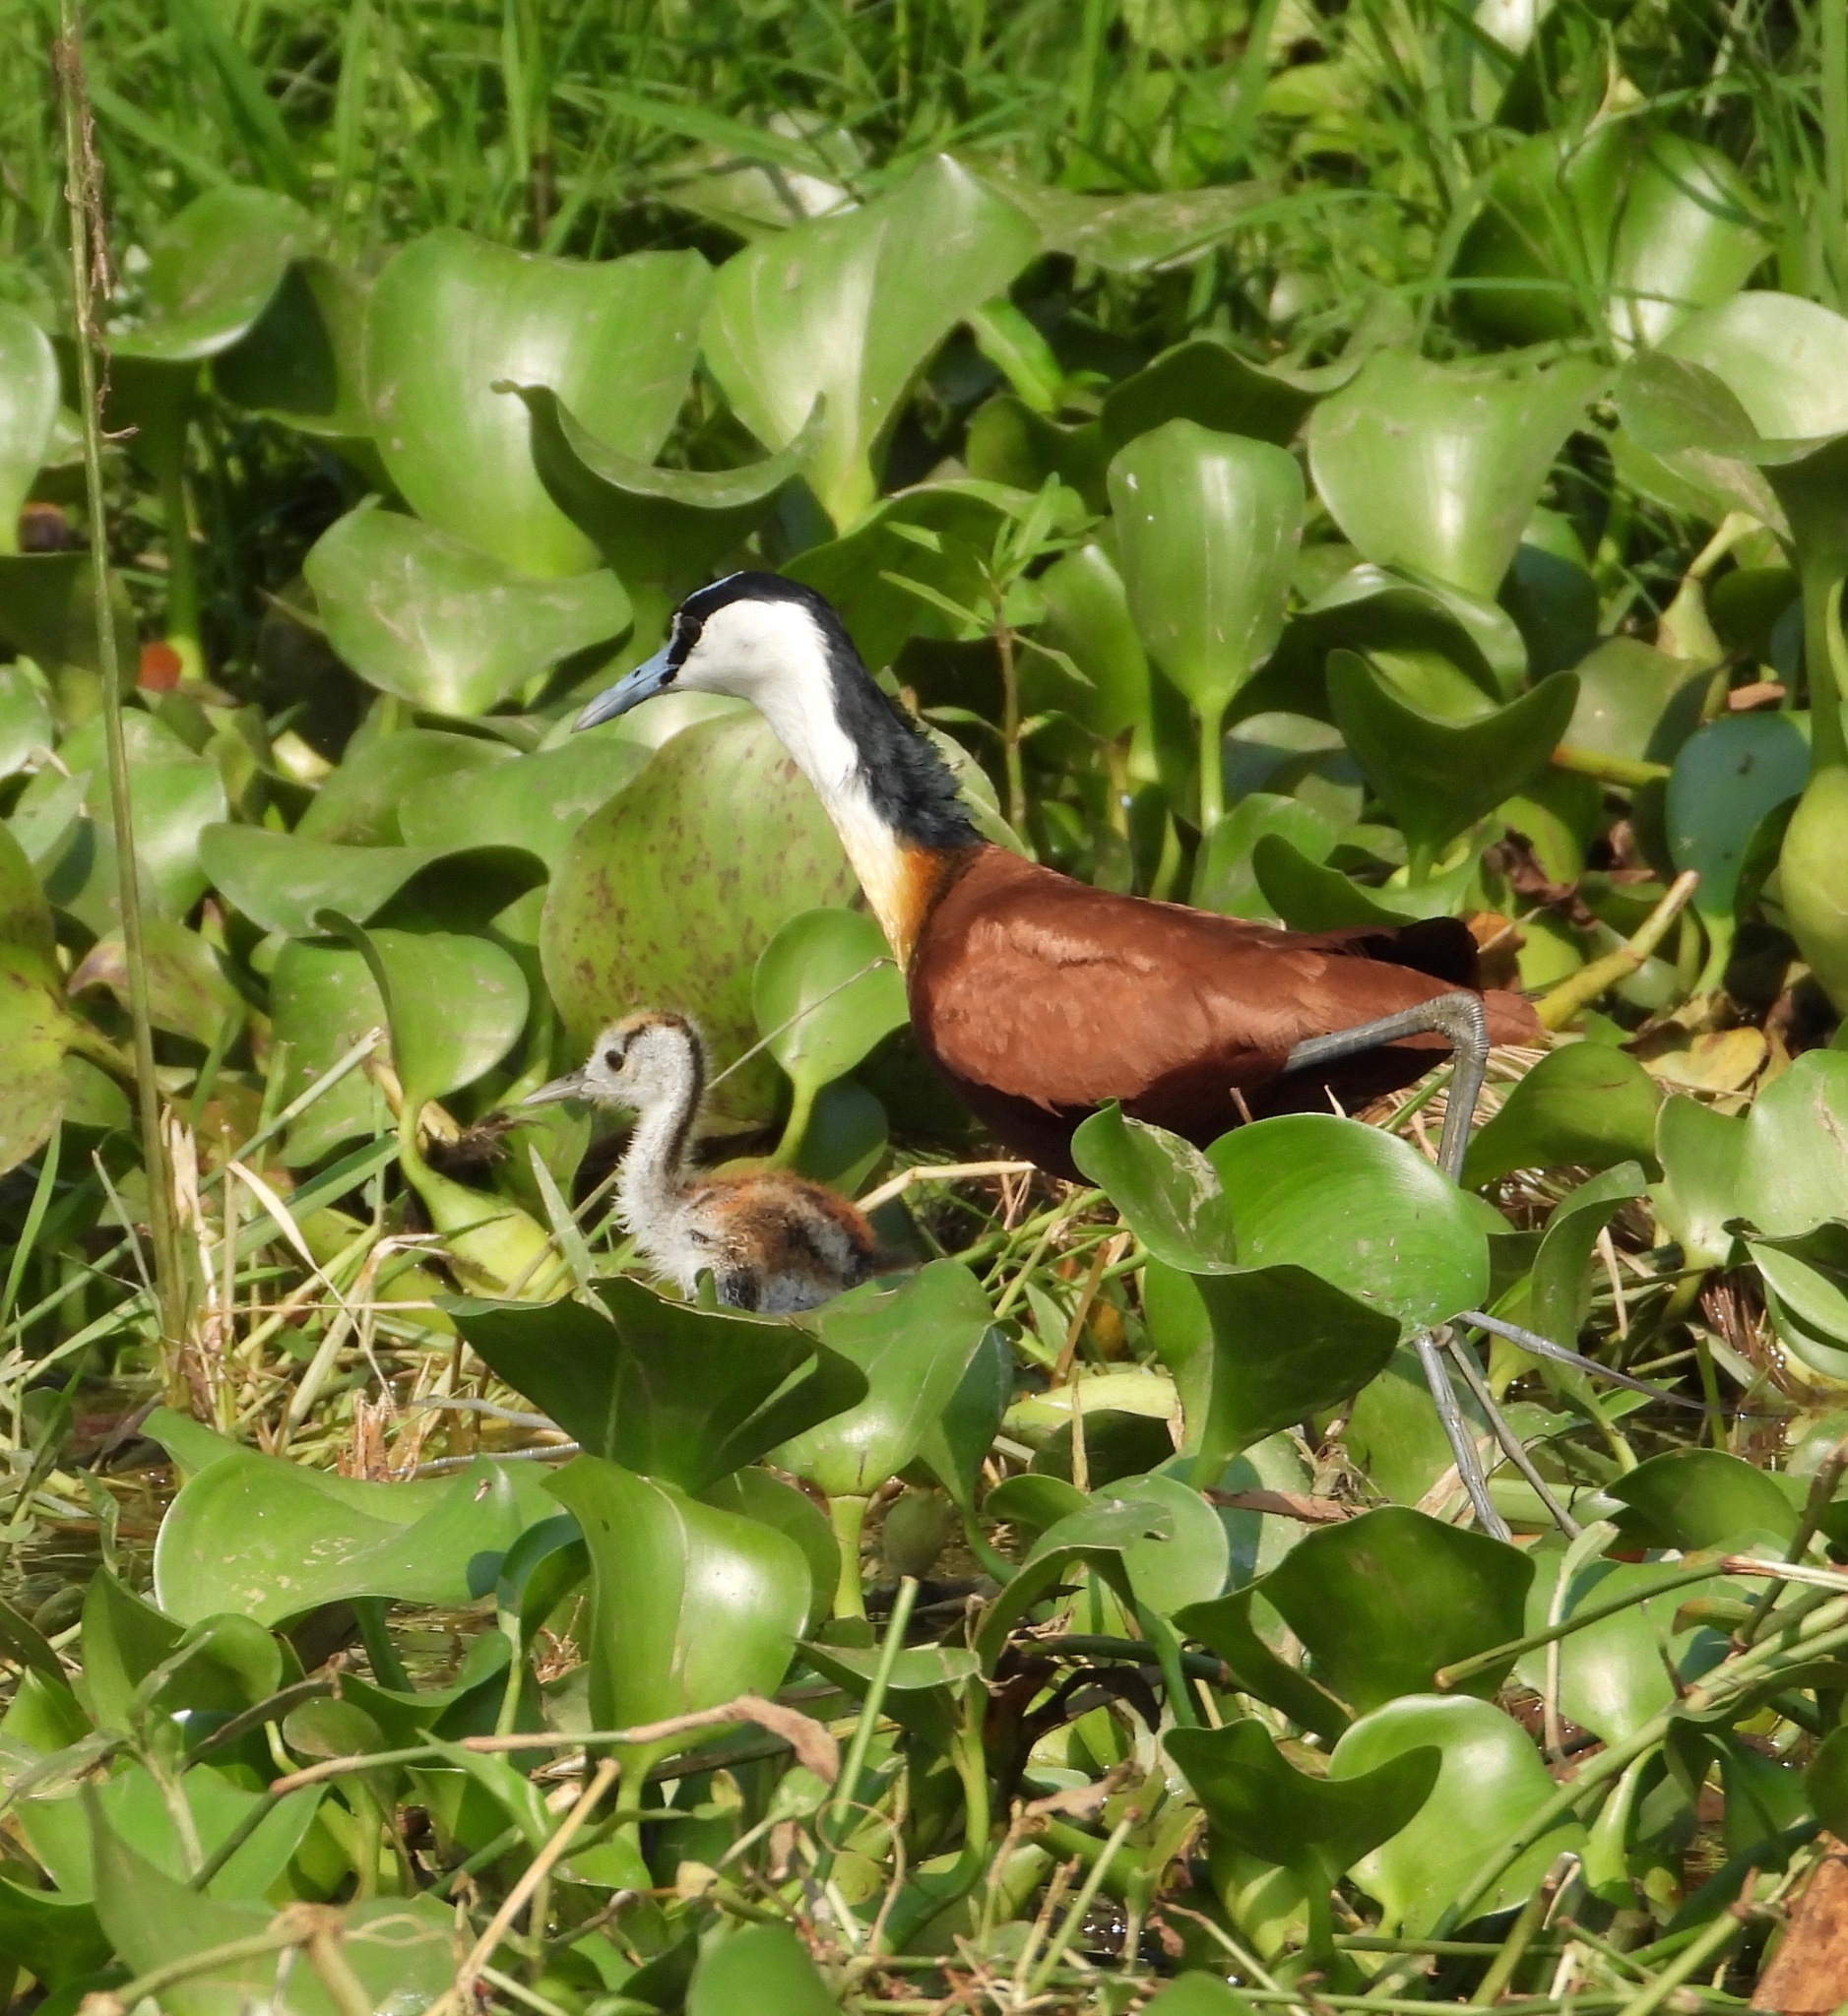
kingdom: Animalia
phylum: Chordata
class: Aves
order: Charadriiformes
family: Jacanidae
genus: Actophilornis
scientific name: Actophilornis africanus
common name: African jacana
